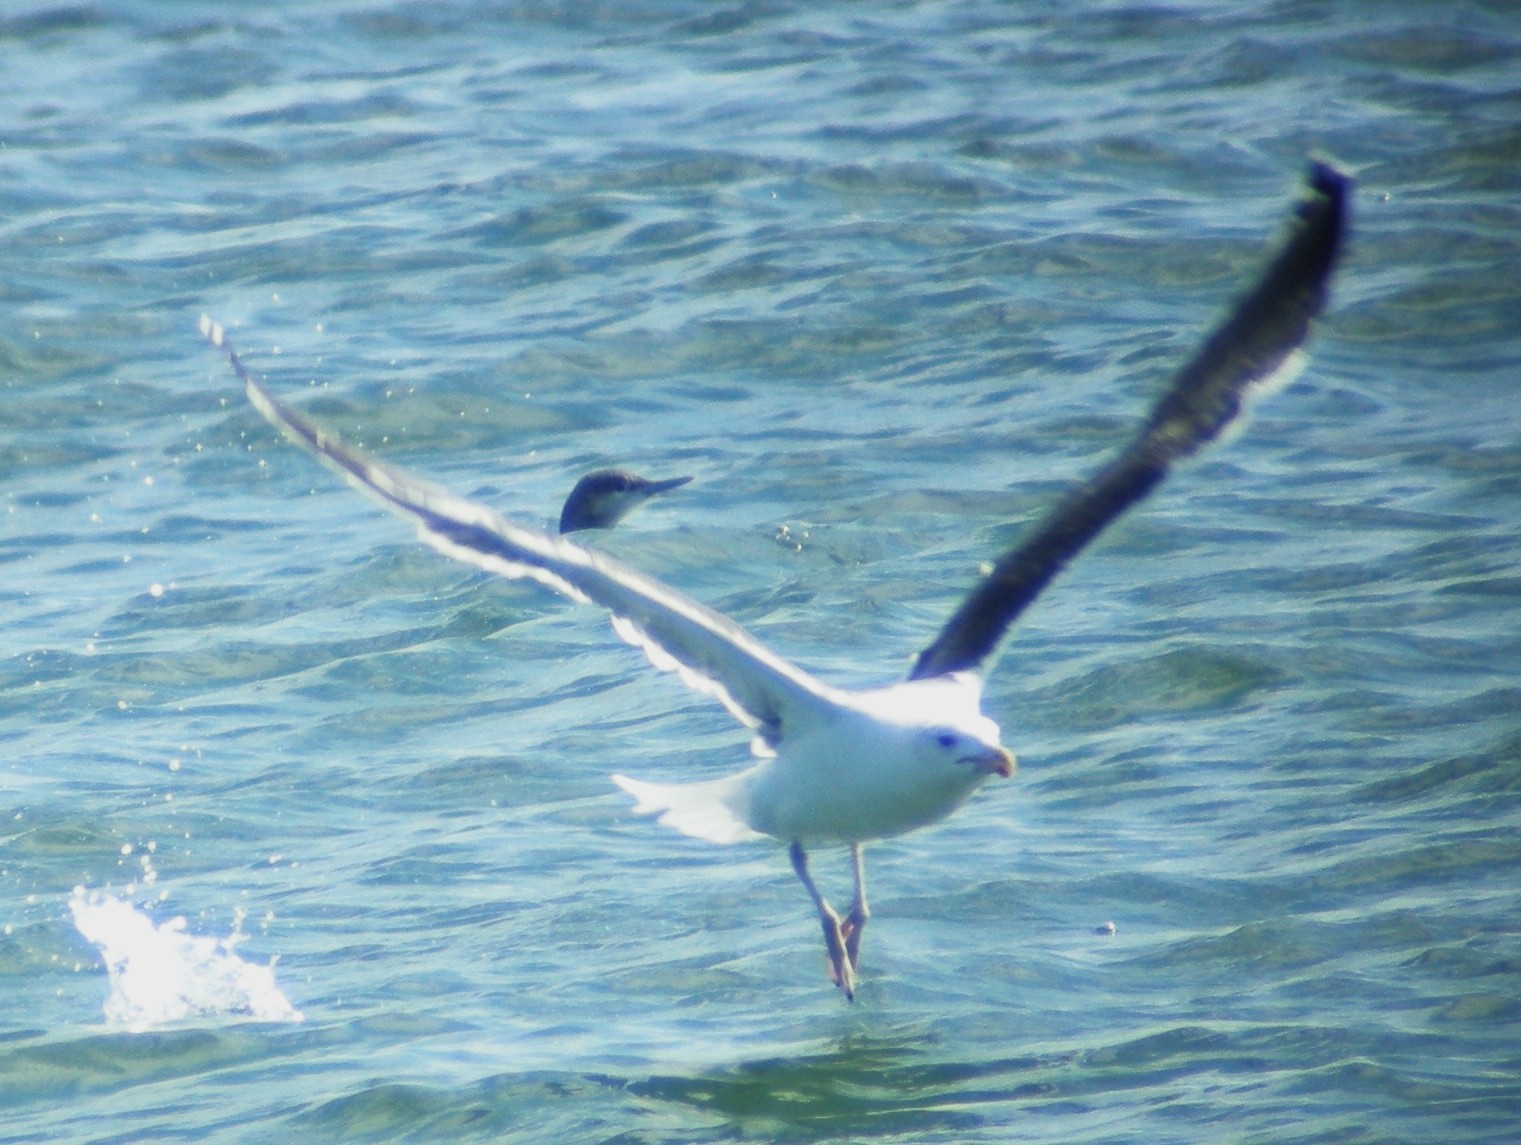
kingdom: Animalia
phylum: Chordata
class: Aves
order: Charadriiformes
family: Laridae
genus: Larus
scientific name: Larus marinus
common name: Great black-backed gull
